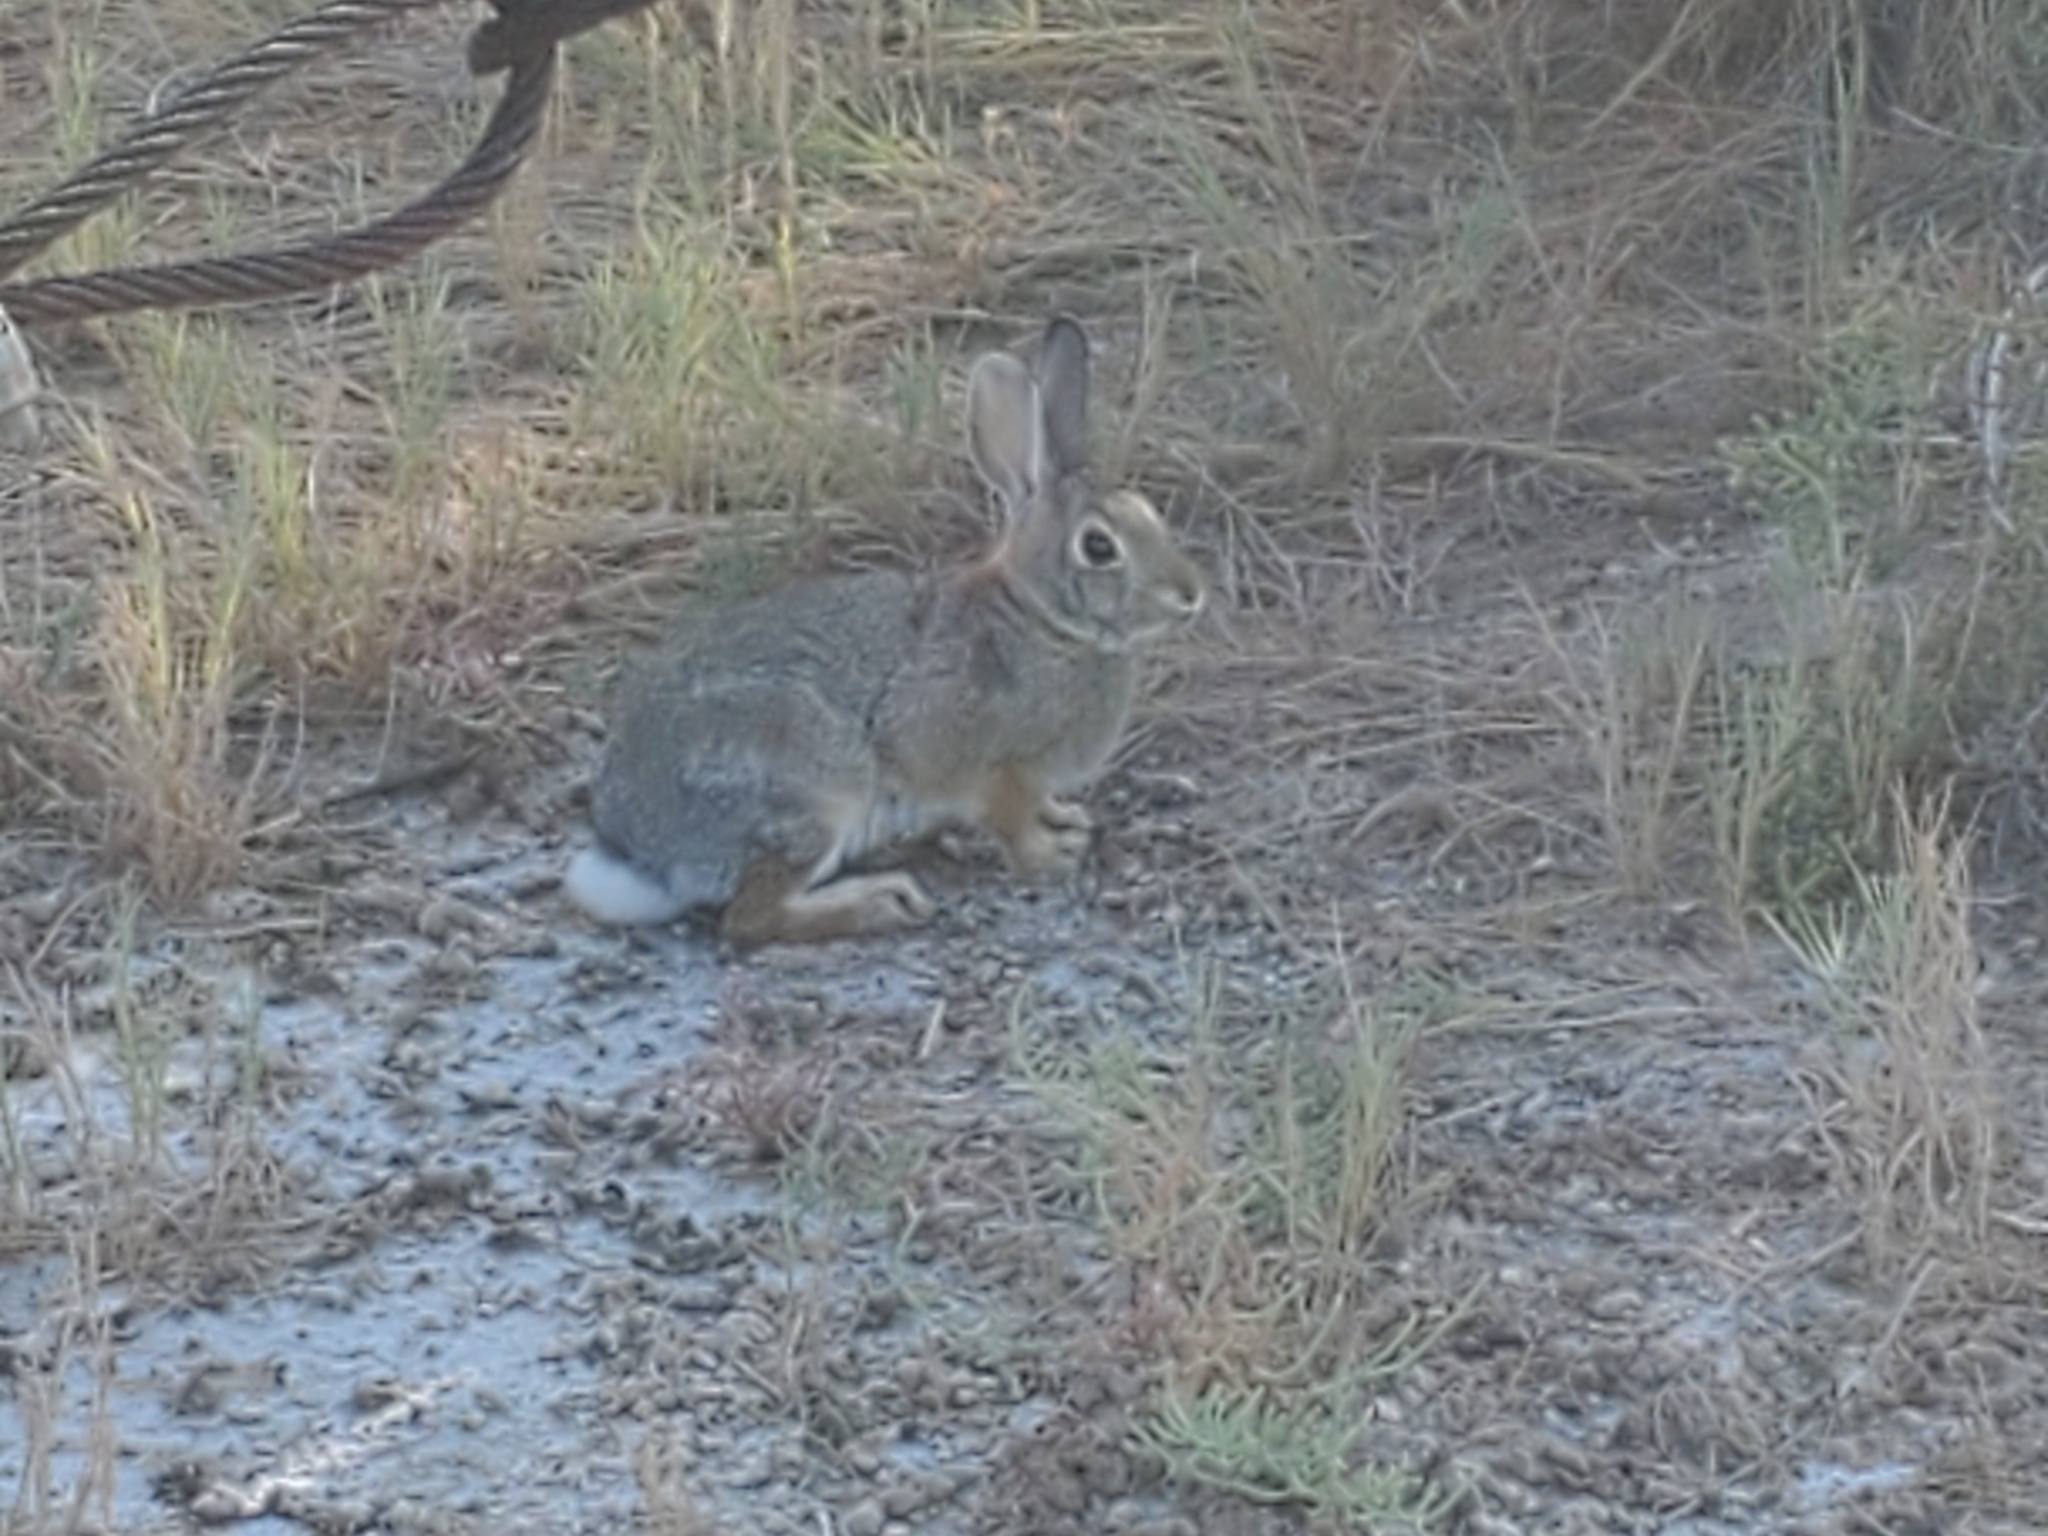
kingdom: Animalia
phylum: Chordata
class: Mammalia
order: Lagomorpha
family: Leporidae
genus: Sylvilagus
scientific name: Sylvilagus audubonii
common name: Desert cottontail
